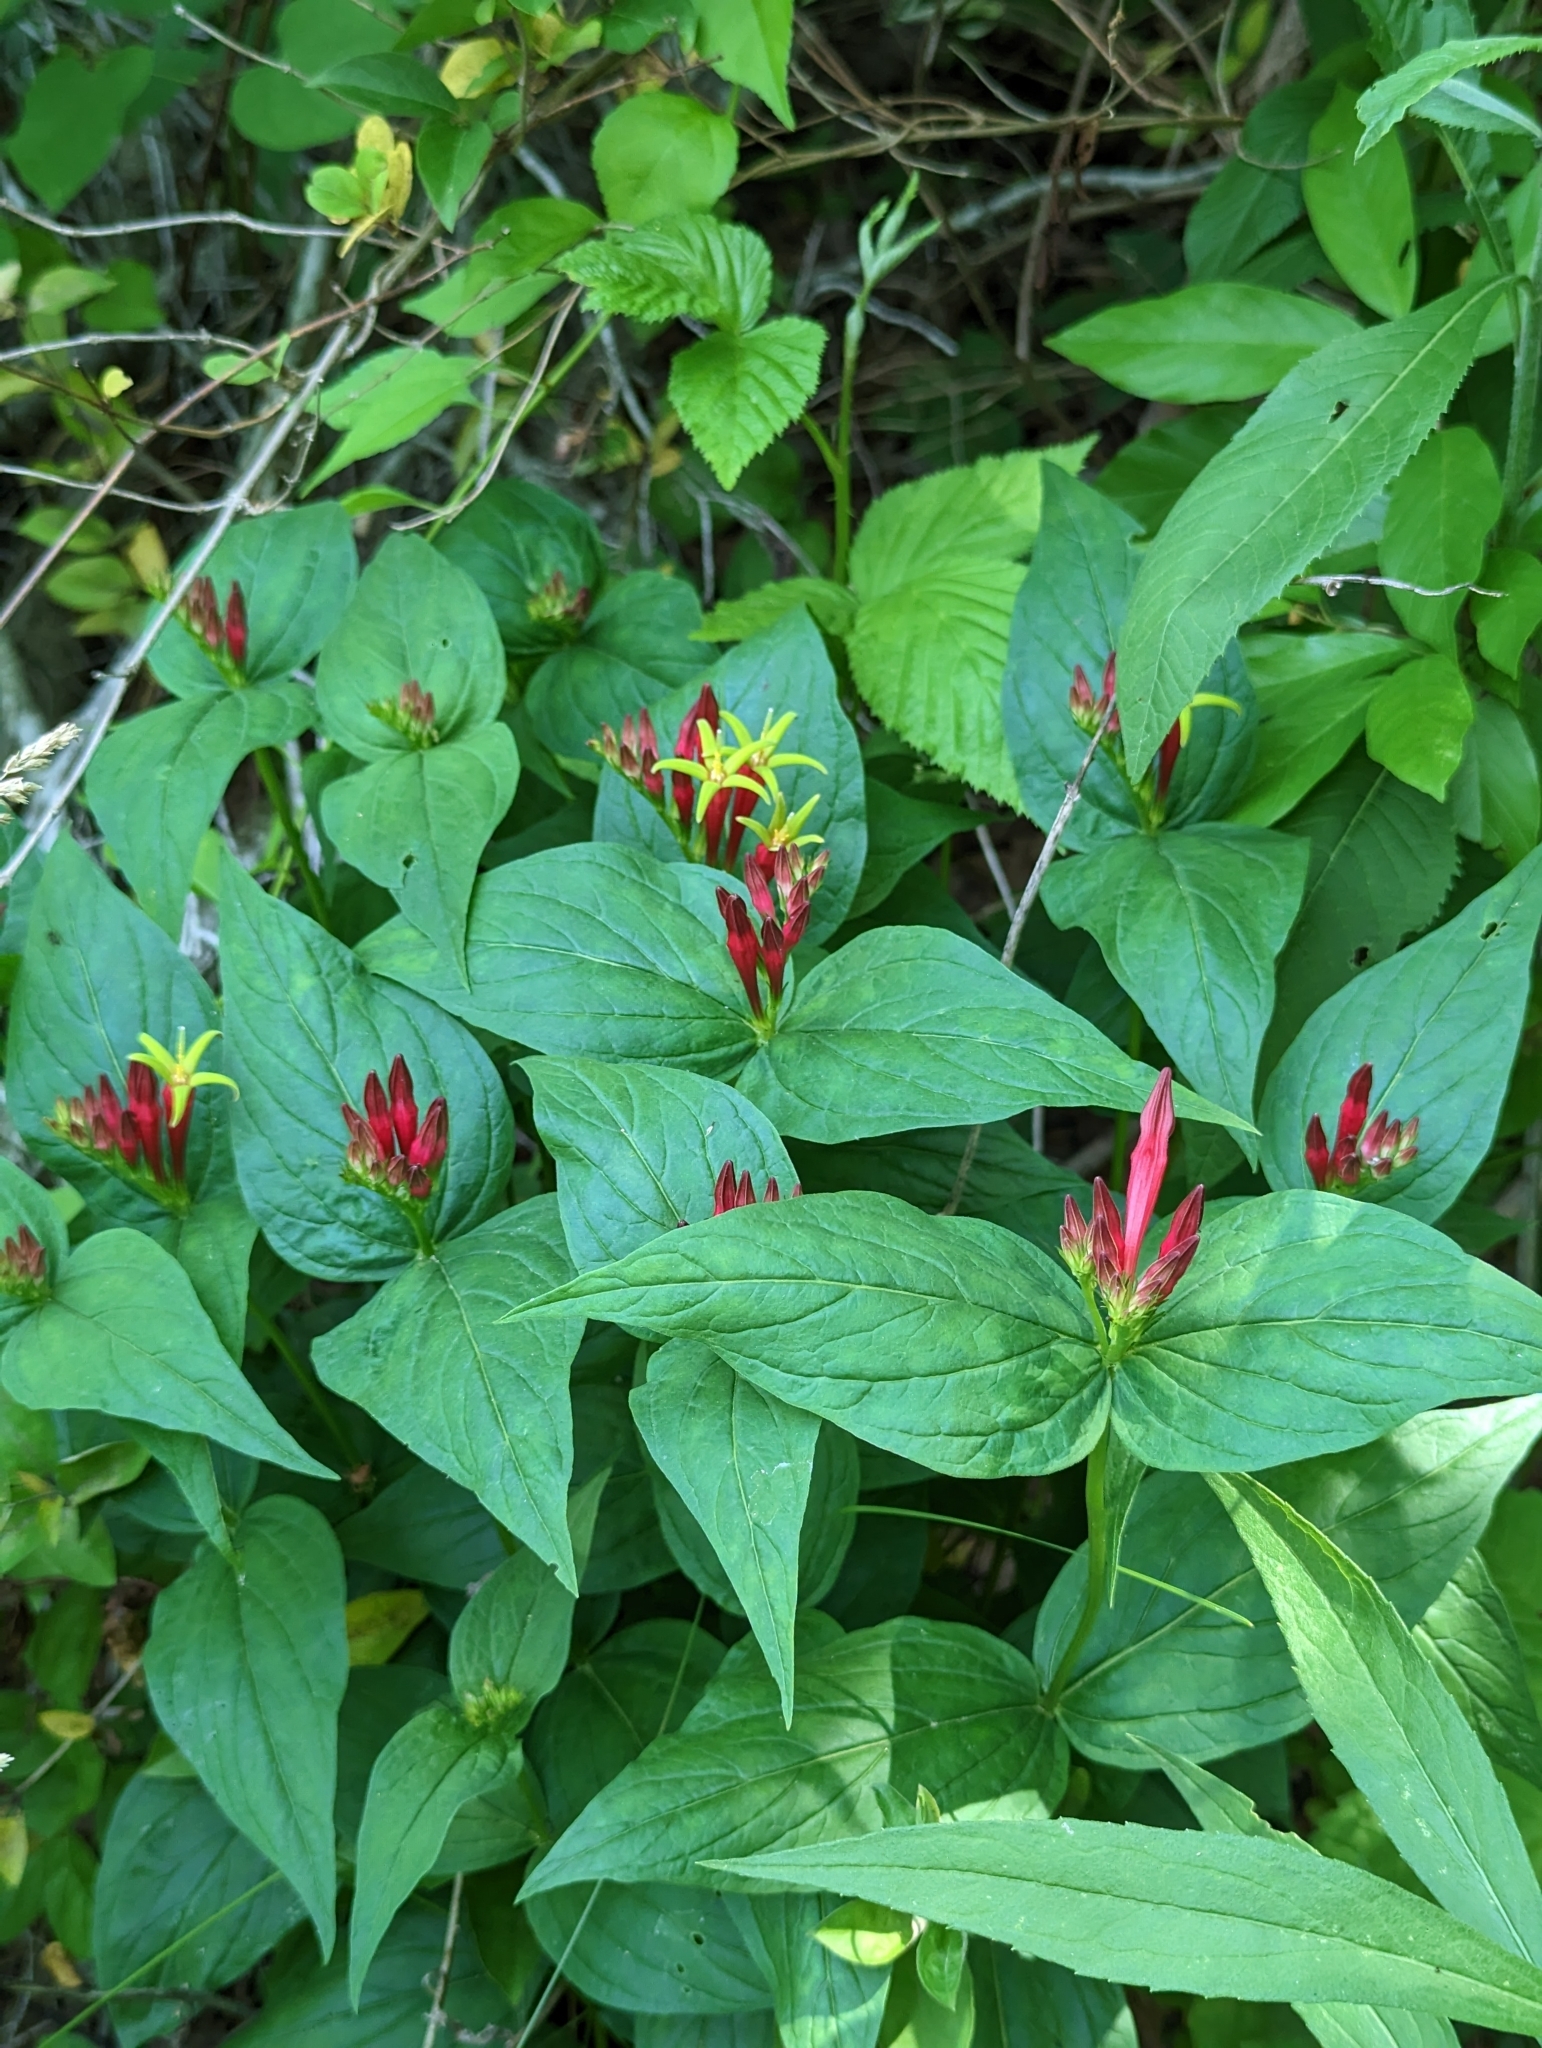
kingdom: Plantae
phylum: Tracheophyta
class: Magnoliopsida
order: Gentianales
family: Loganiaceae
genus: Spigelia
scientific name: Spigelia marilandica
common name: Indian-pink
